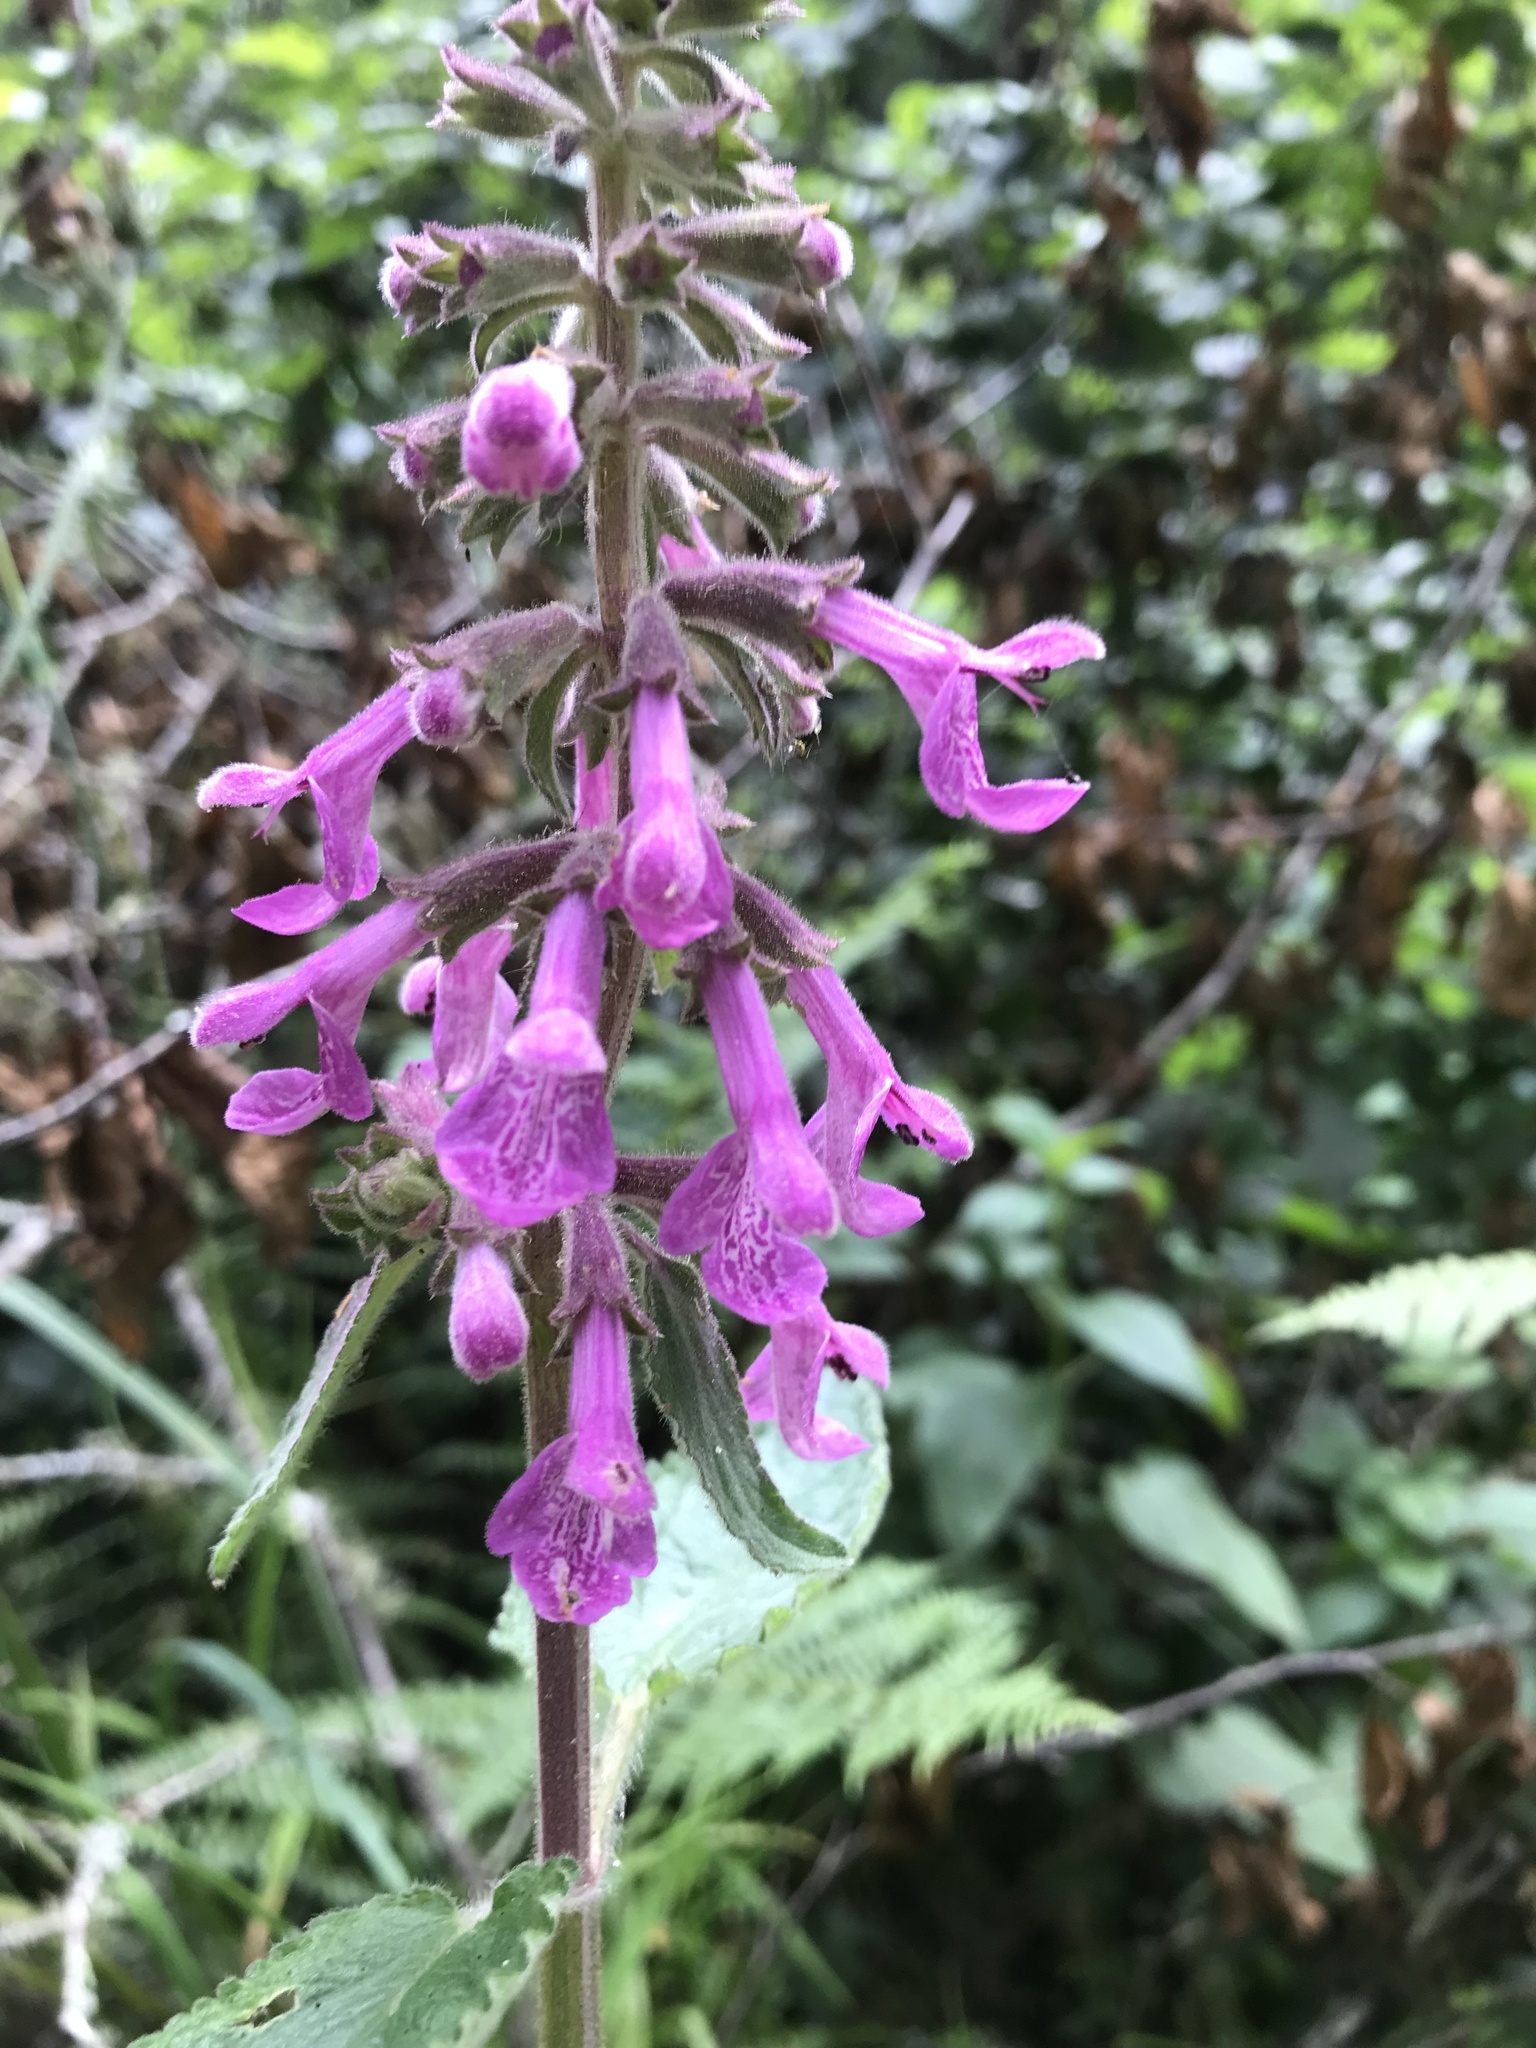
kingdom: Plantae
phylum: Tracheophyta
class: Magnoliopsida
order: Lamiales
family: Lamiaceae
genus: Stachys
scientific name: Stachys chamissonis
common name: Coastal hedge-nettle
